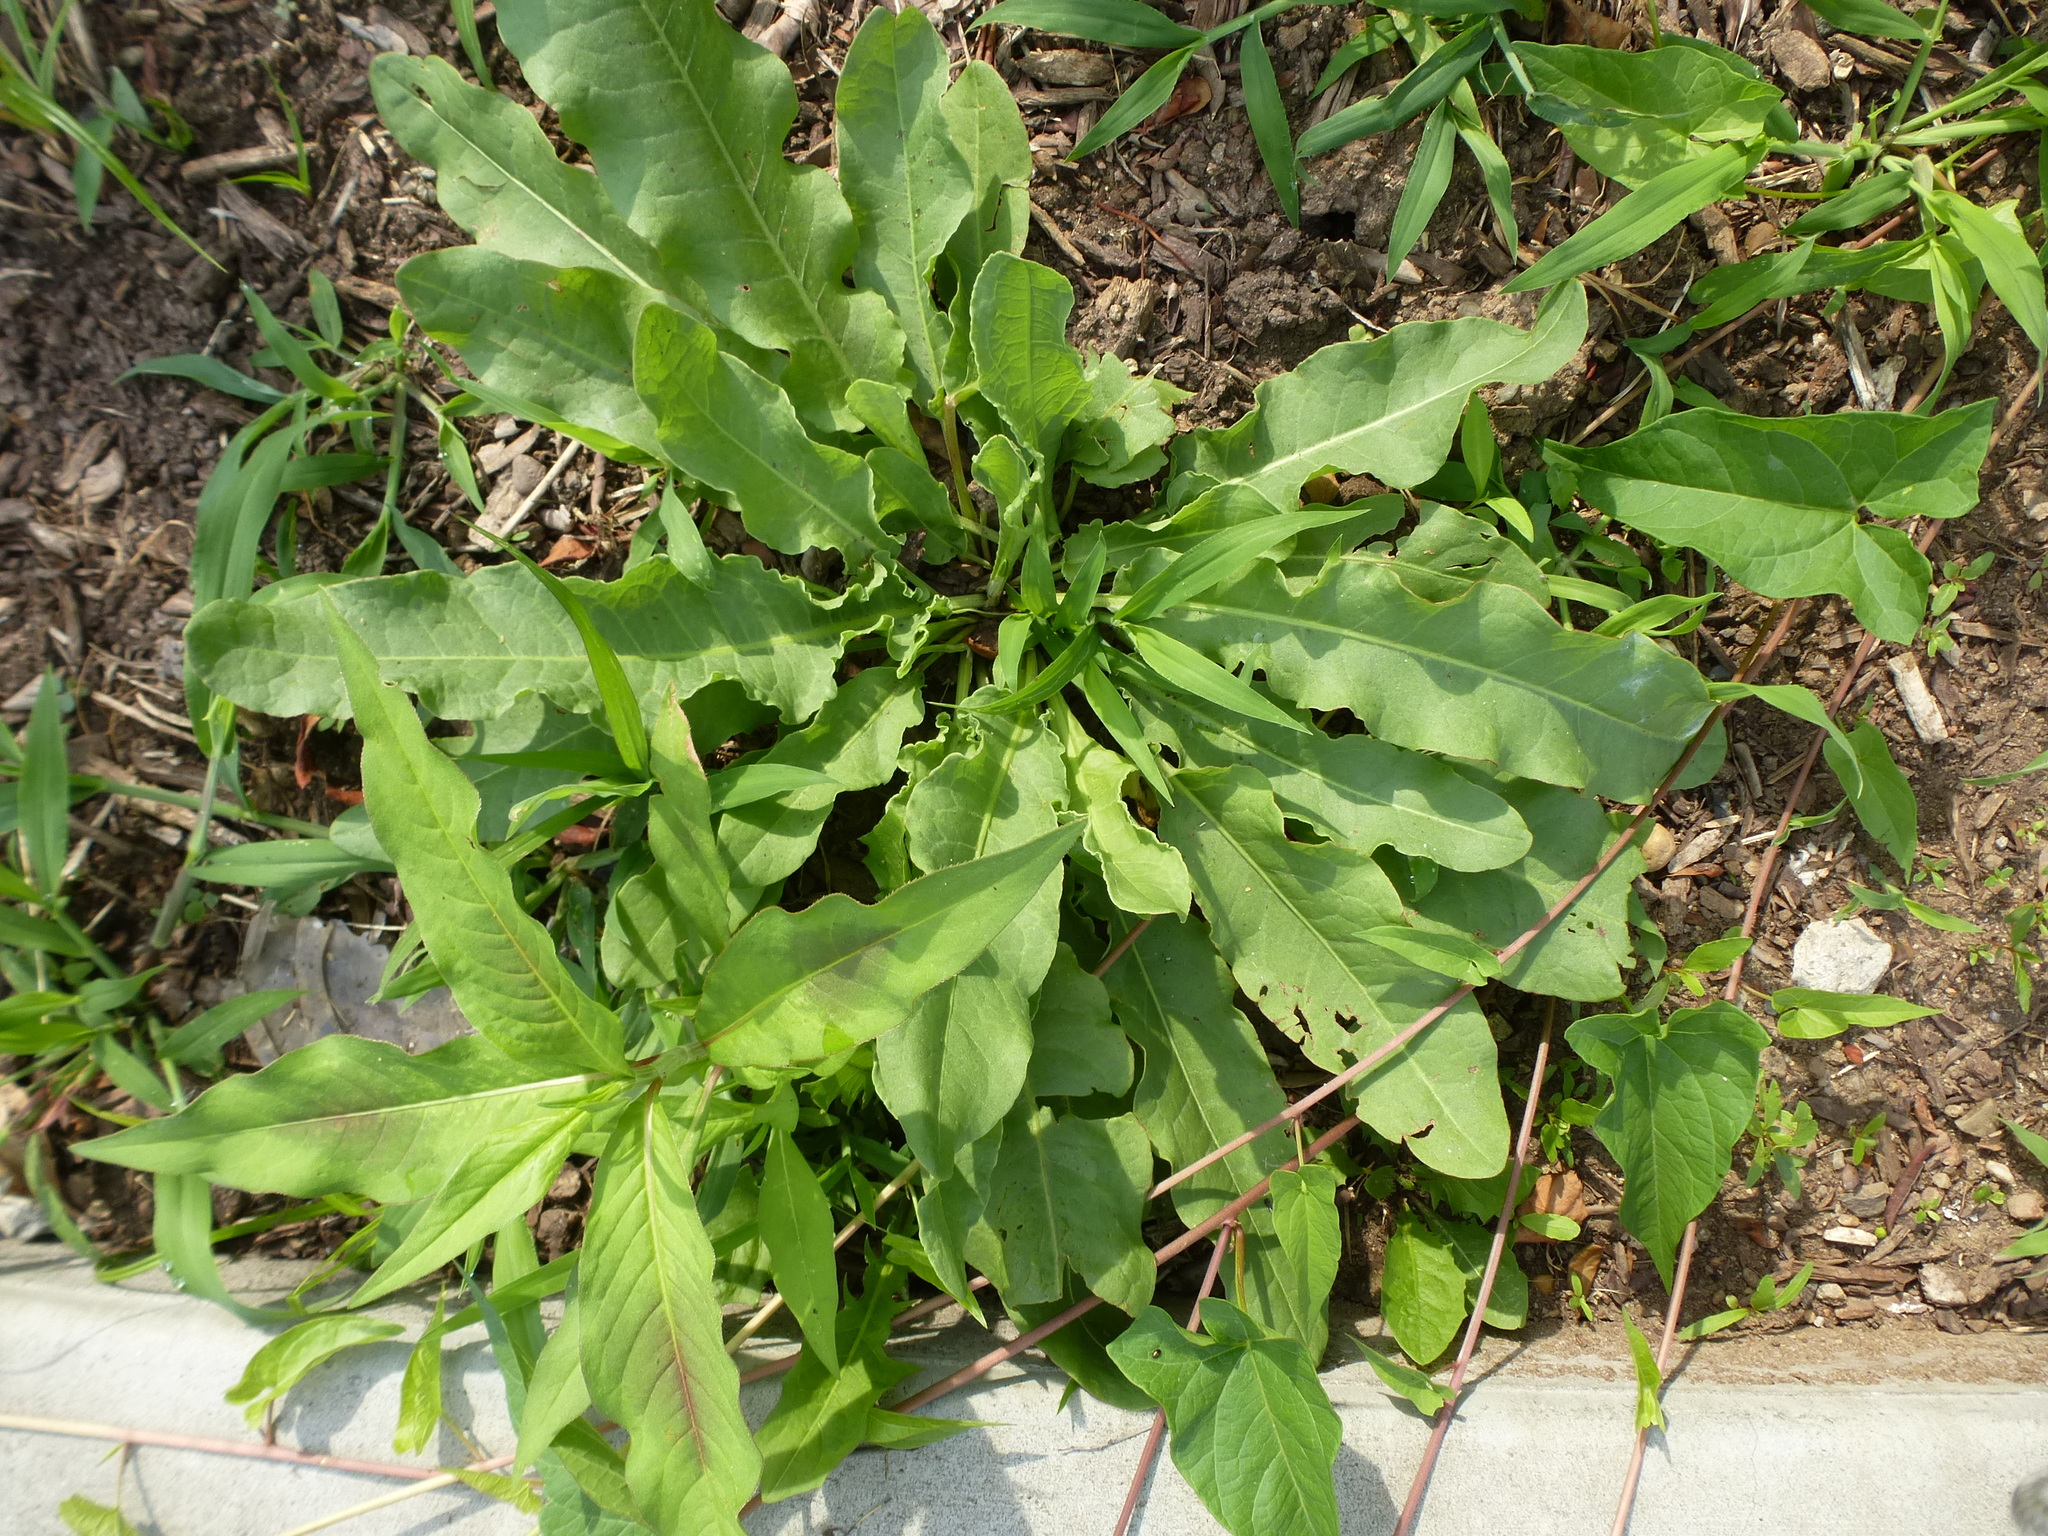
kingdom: Plantae
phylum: Tracheophyta
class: Magnoliopsida
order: Caryophyllales
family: Polygonaceae
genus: Rumex
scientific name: Rumex crispus
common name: Curled dock
